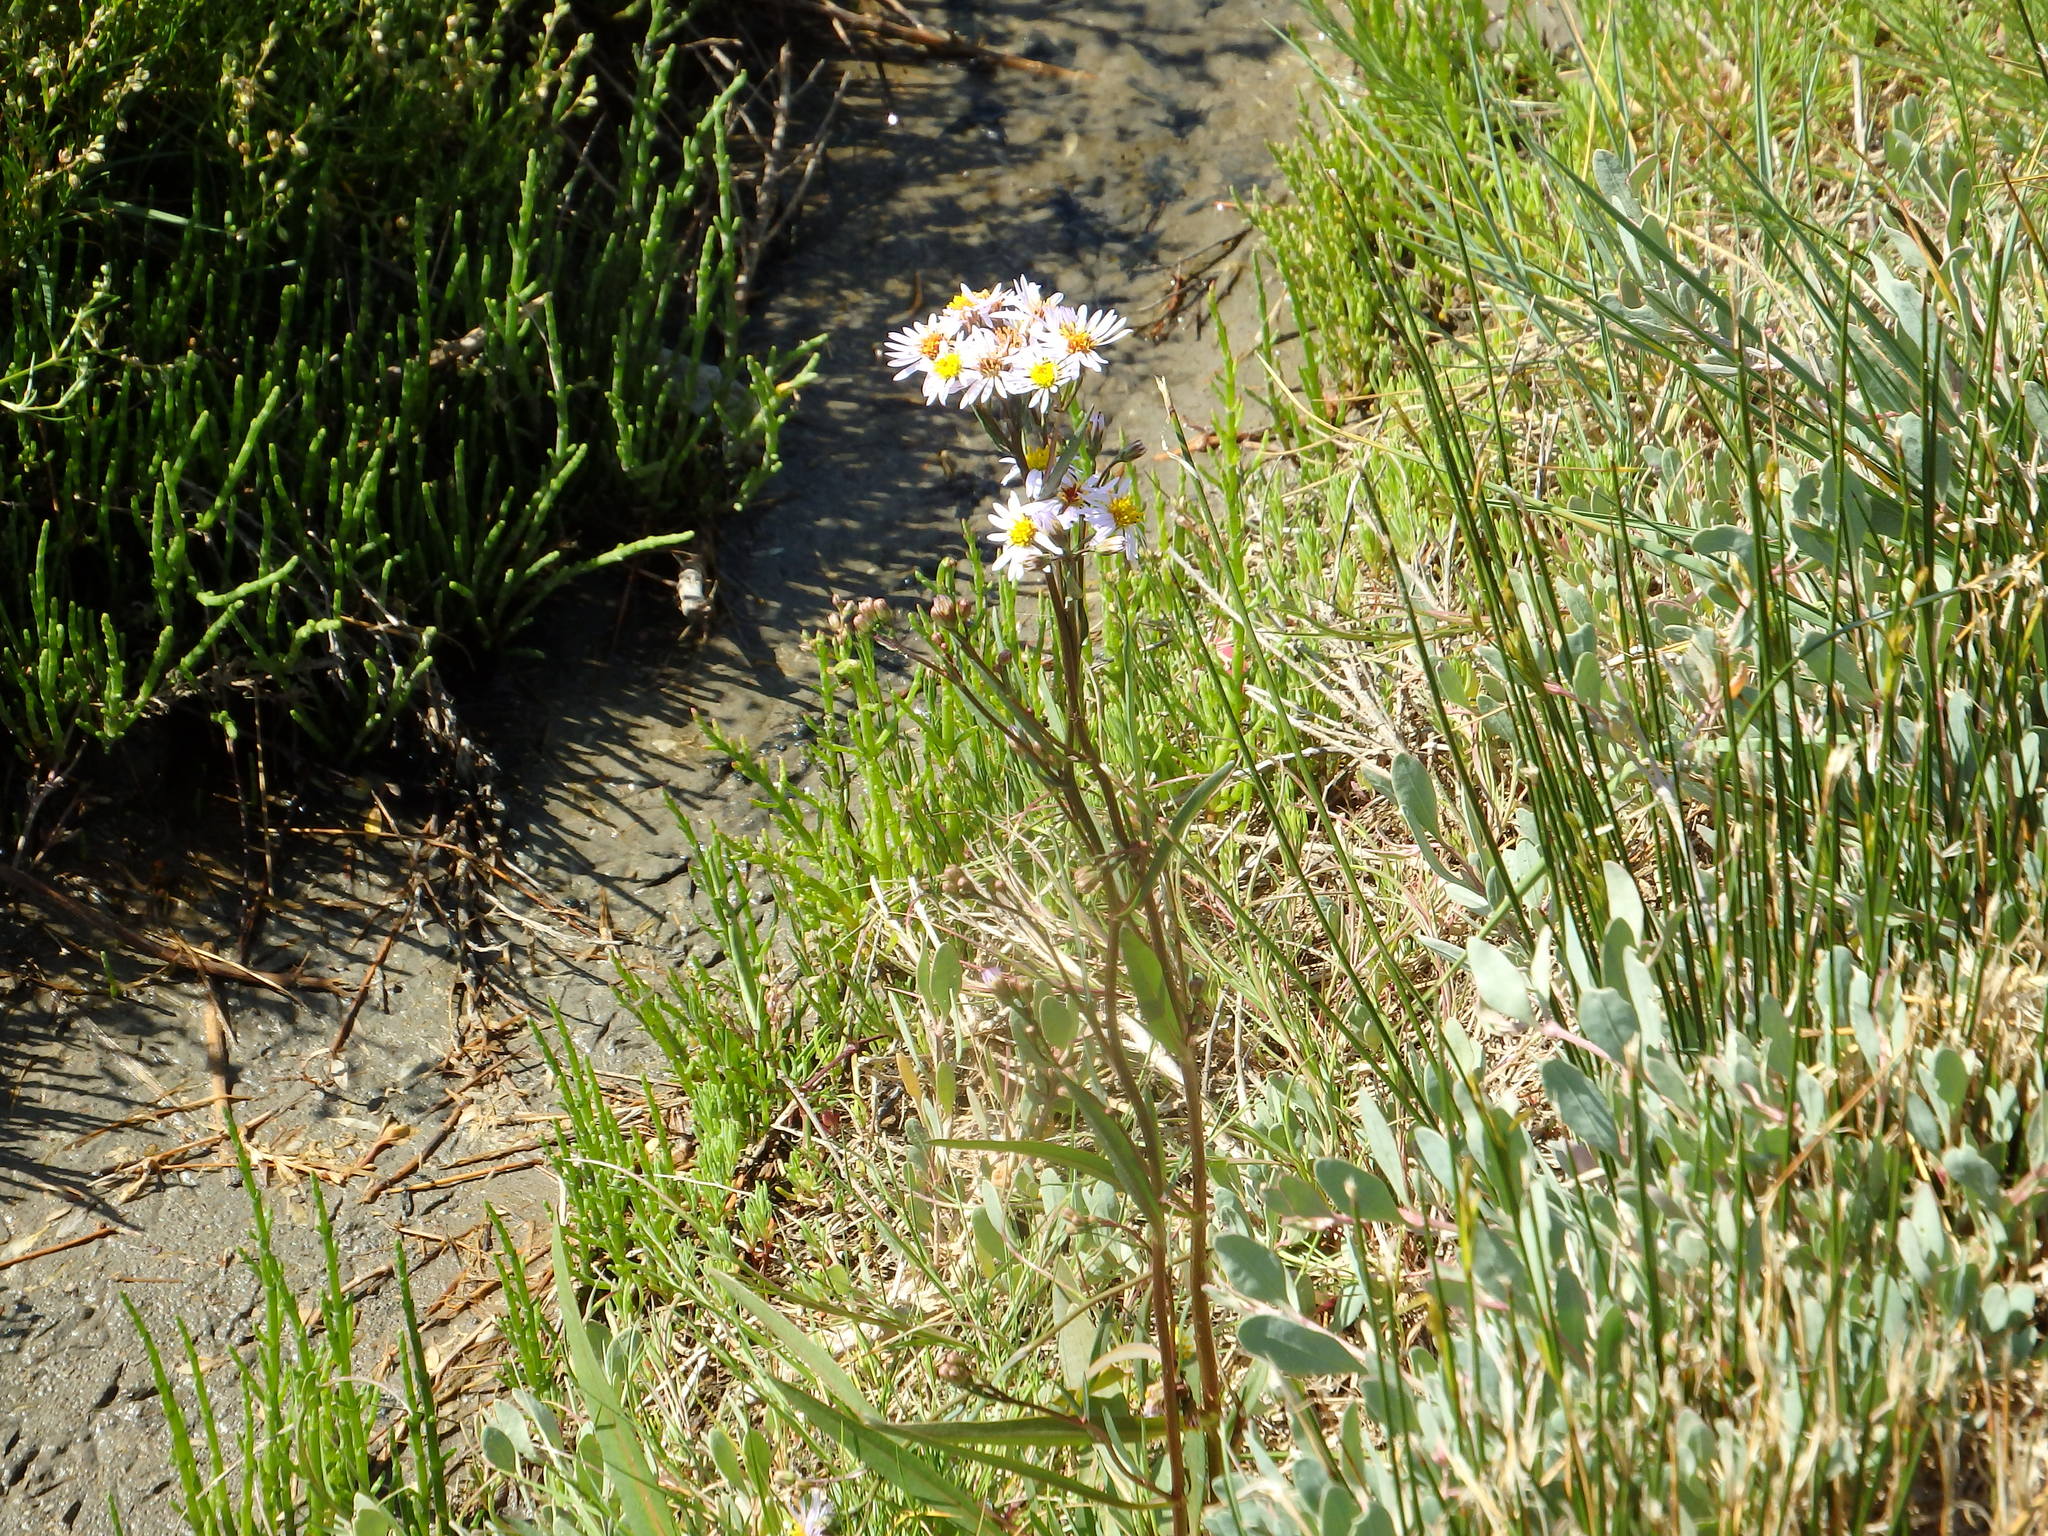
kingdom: Plantae
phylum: Tracheophyta
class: Magnoliopsida
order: Asterales
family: Asteraceae
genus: Tripolium
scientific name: Tripolium pannonicum
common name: Sea aster
